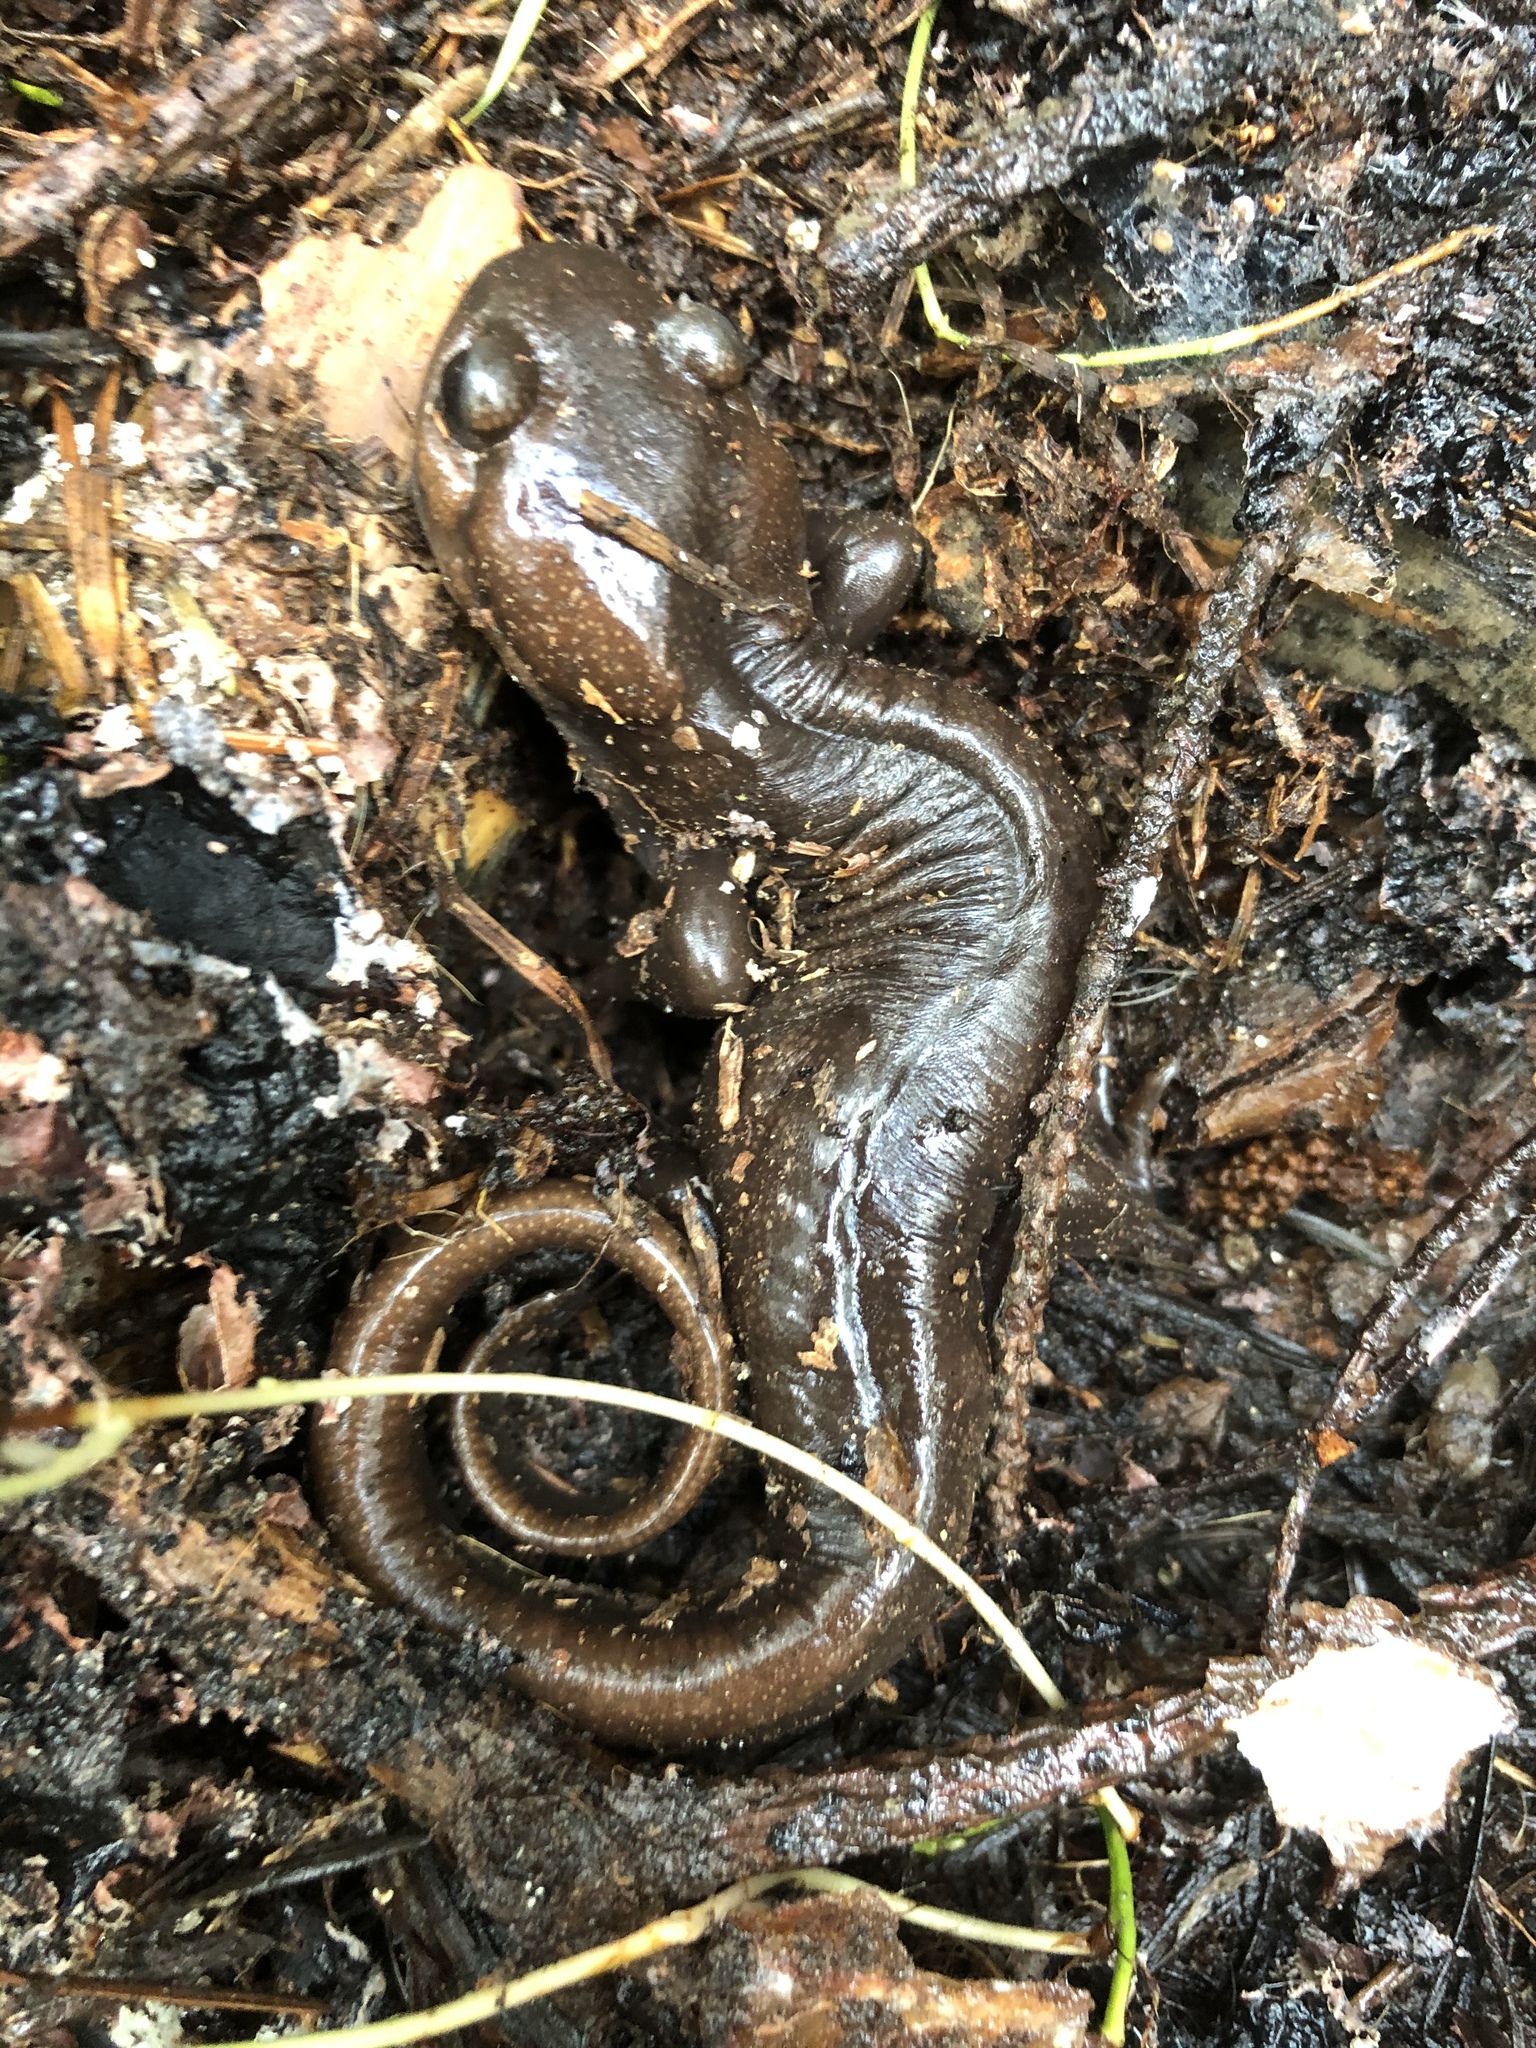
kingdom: Animalia
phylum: Chordata
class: Amphibia
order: Caudata
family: Ambystomatidae
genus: Ambystoma
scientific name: Ambystoma gracile
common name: Northwestern salamander
